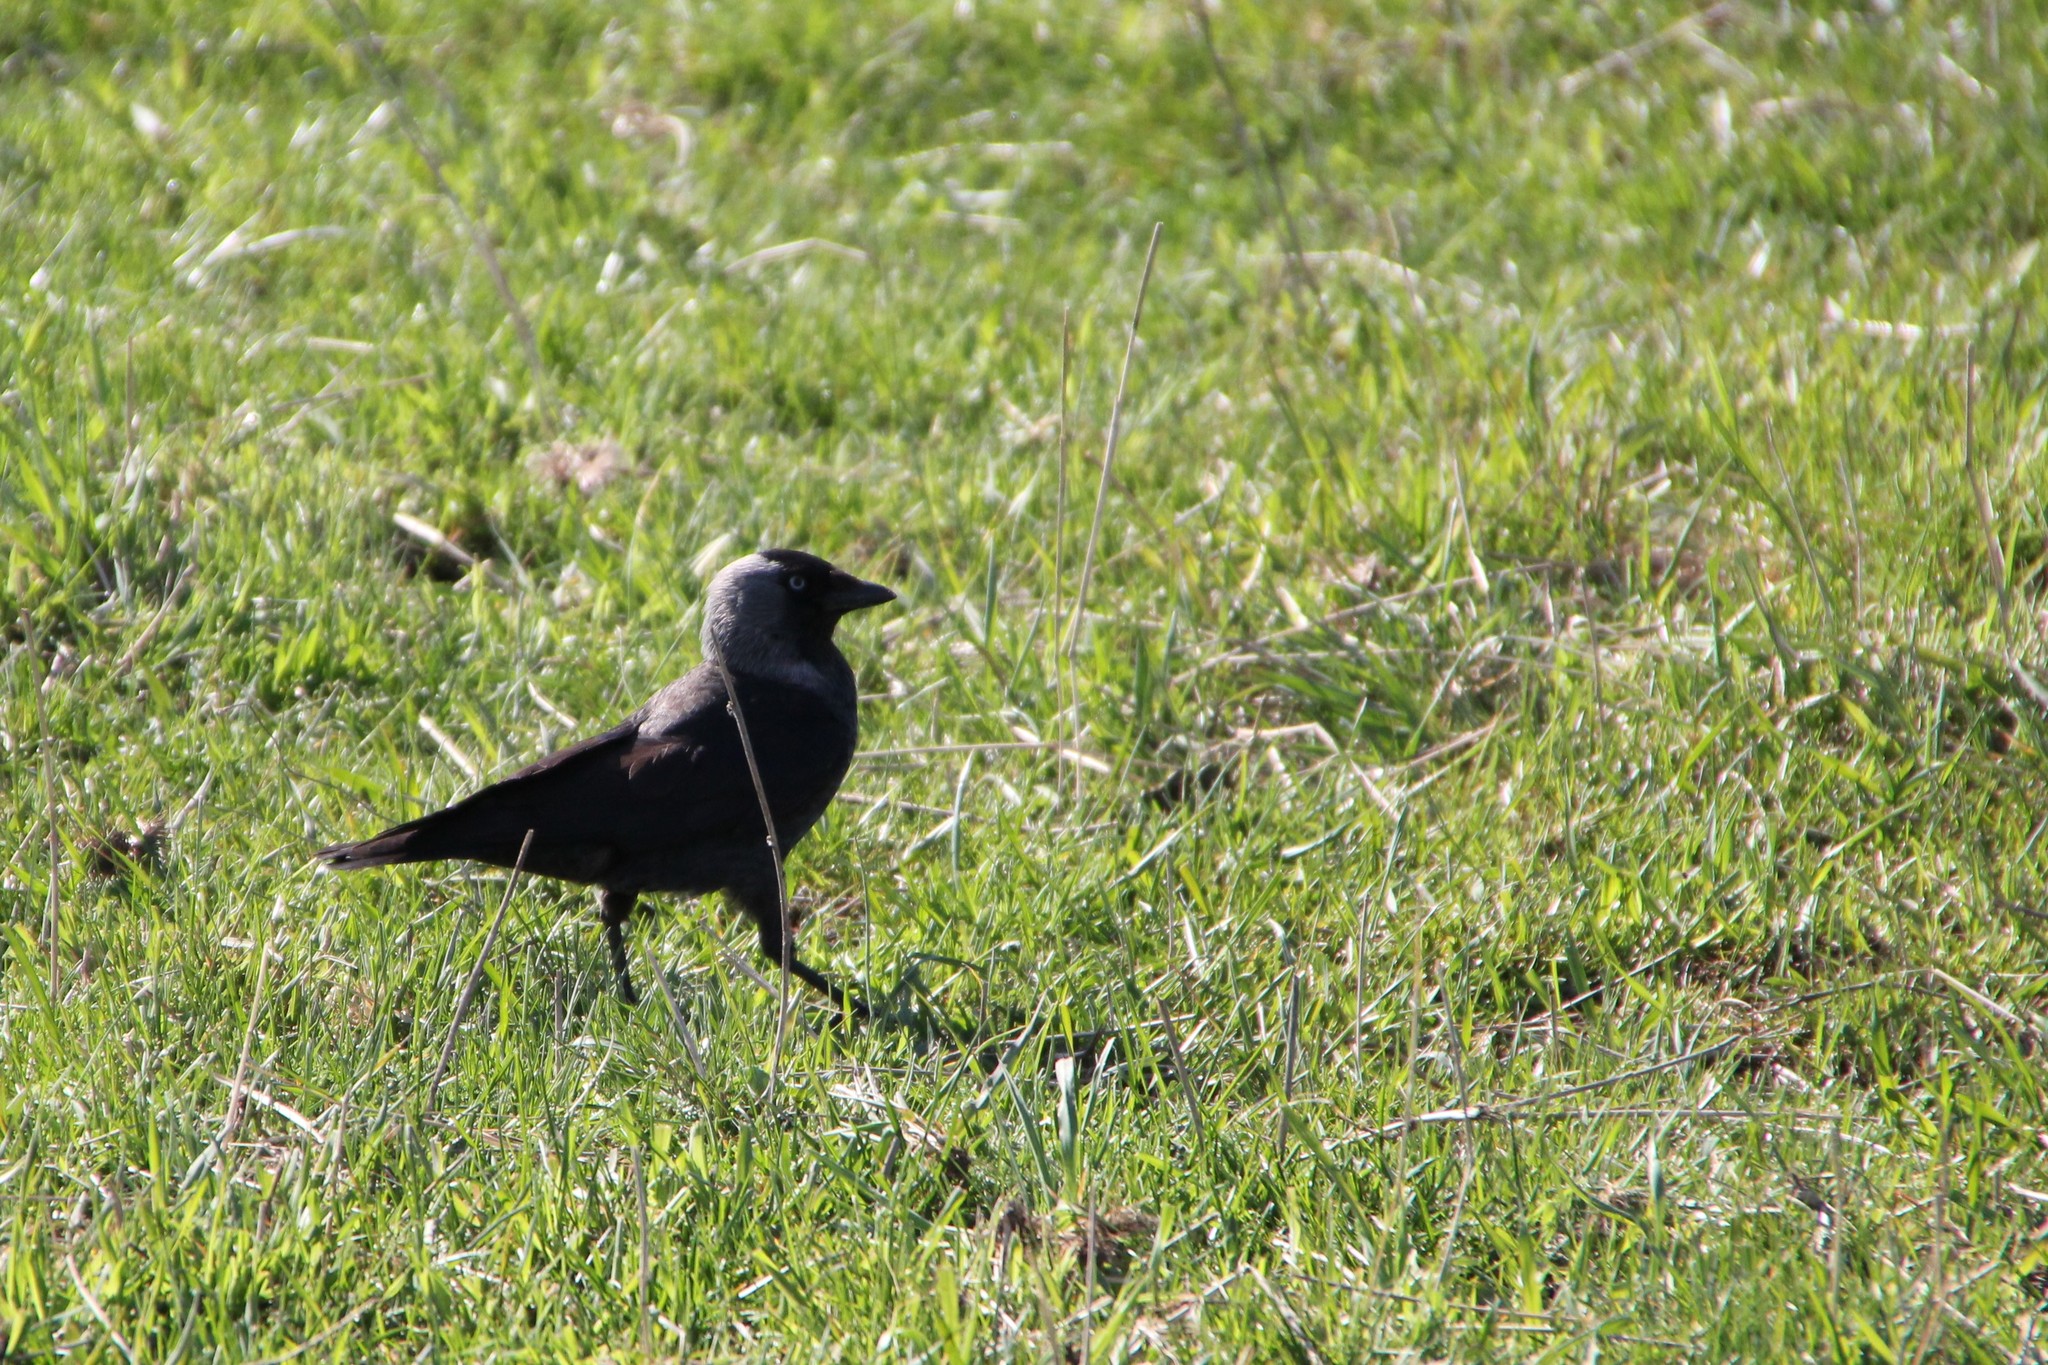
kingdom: Animalia
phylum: Chordata
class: Aves
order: Passeriformes
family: Corvidae
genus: Coloeus
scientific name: Coloeus monedula
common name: Western jackdaw
